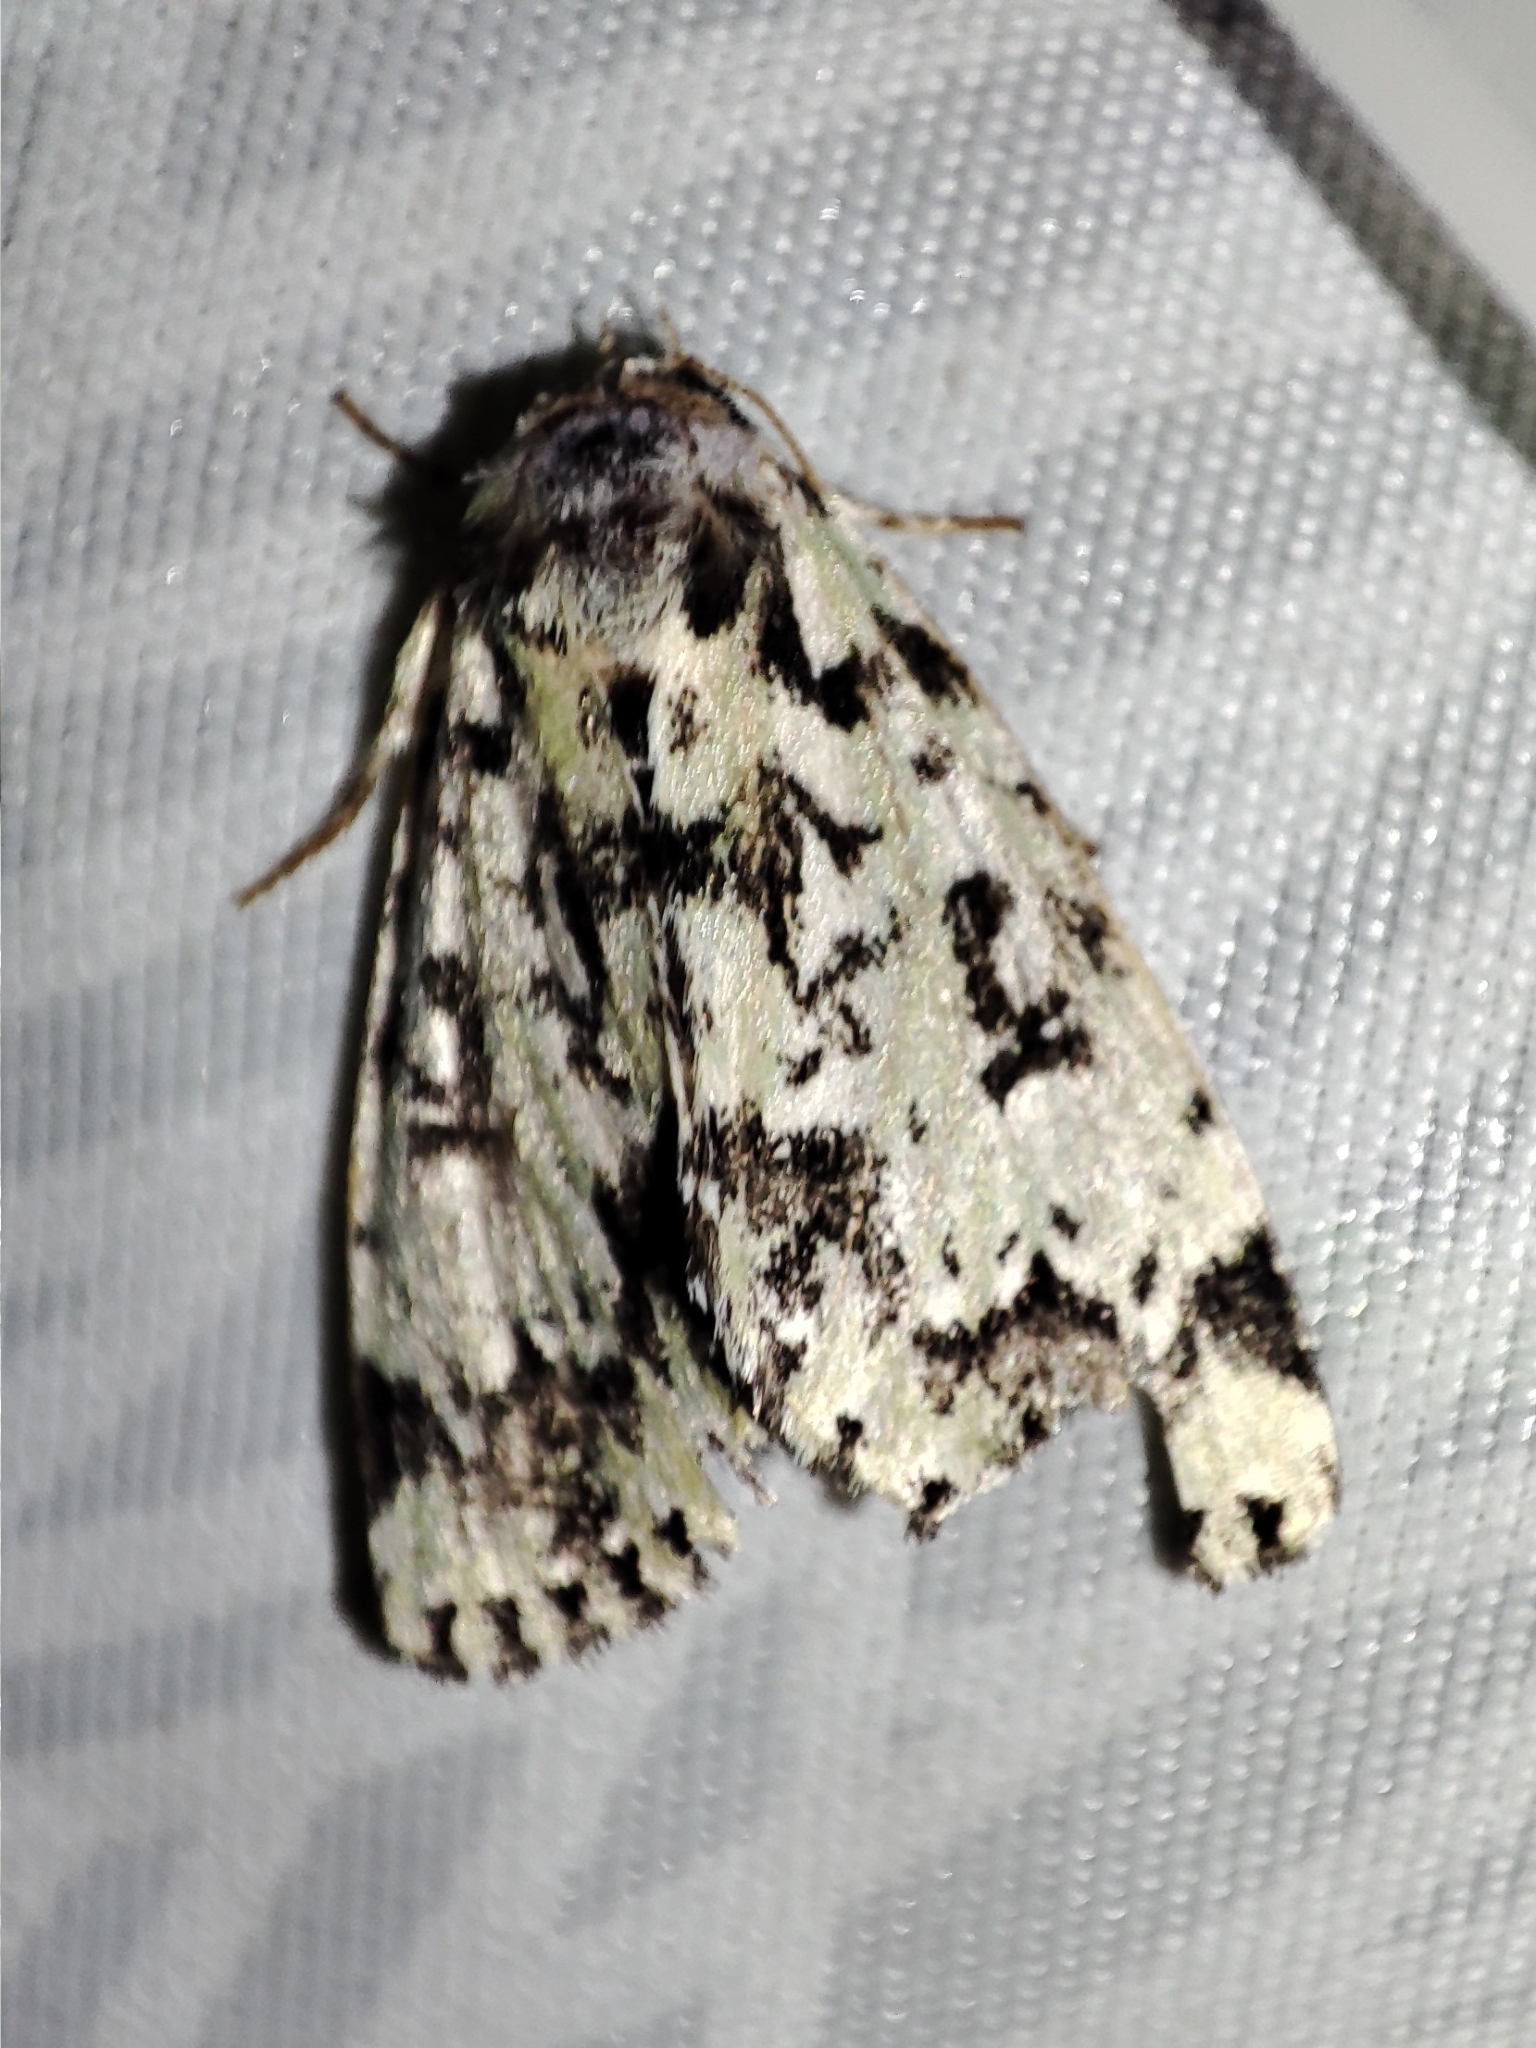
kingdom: Animalia
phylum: Arthropoda
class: Insecta
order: Lepidoptera
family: Noctuidae
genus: Moma
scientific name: Moma alpium
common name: Scarce merveille du jour
